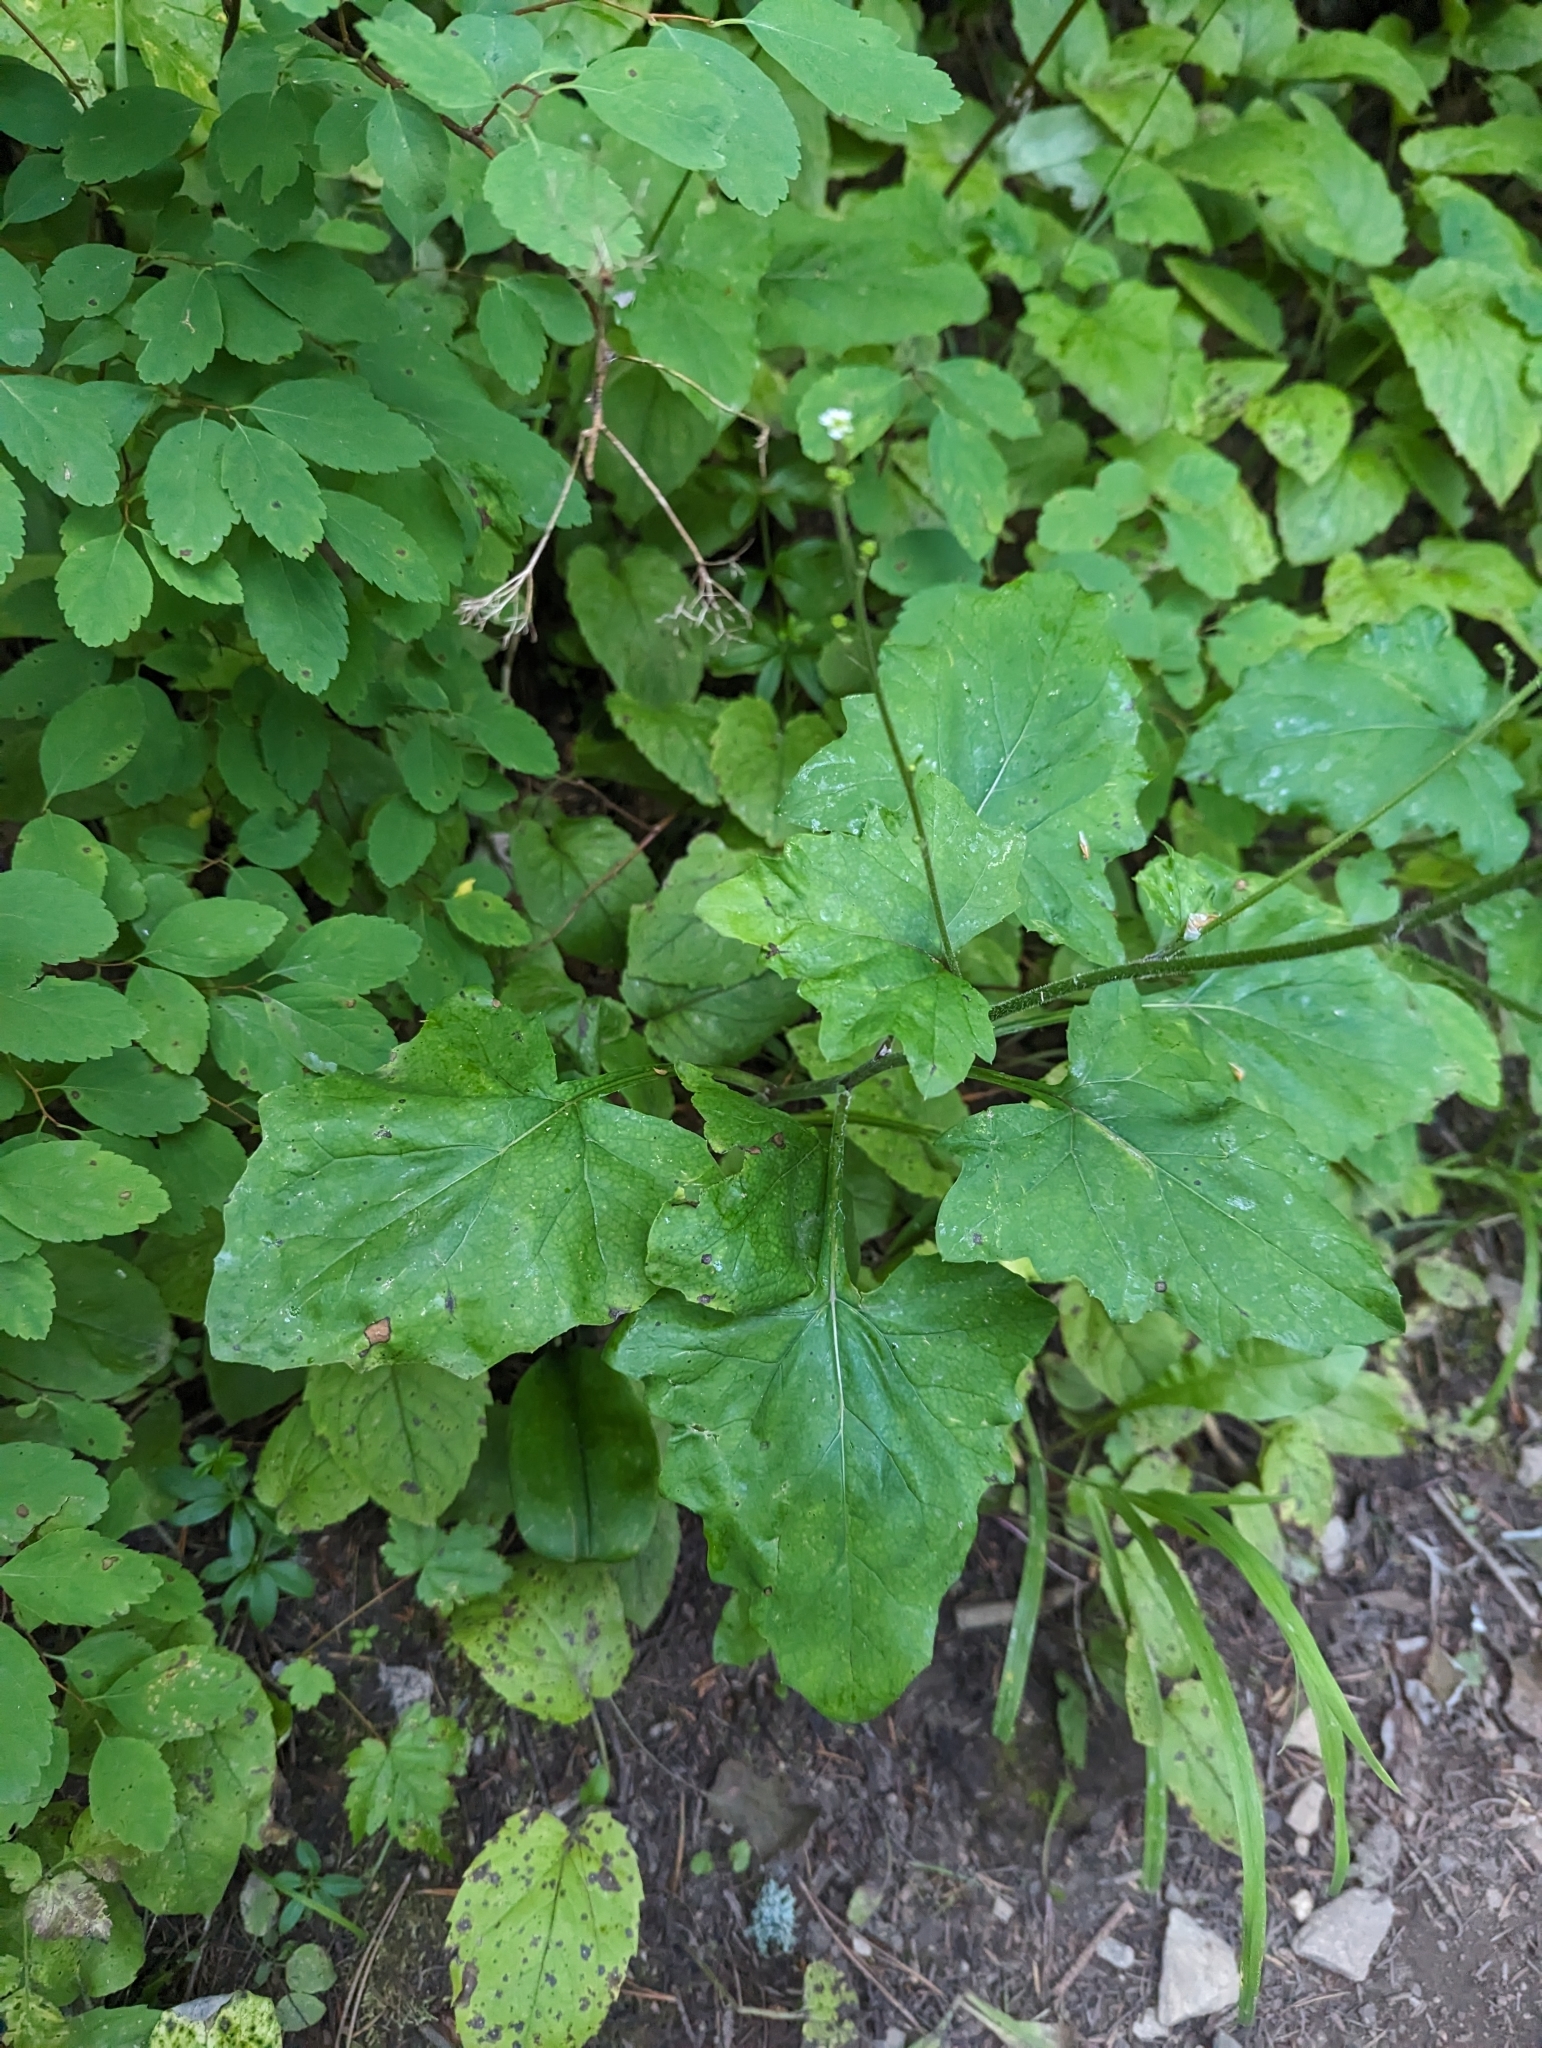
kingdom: Plantae
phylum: Tracheophyta
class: Magnoliopsida
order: Asterales
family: Asteraceae
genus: Adenocaulon
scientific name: Adenocaulon bicolor
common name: Trailplant
